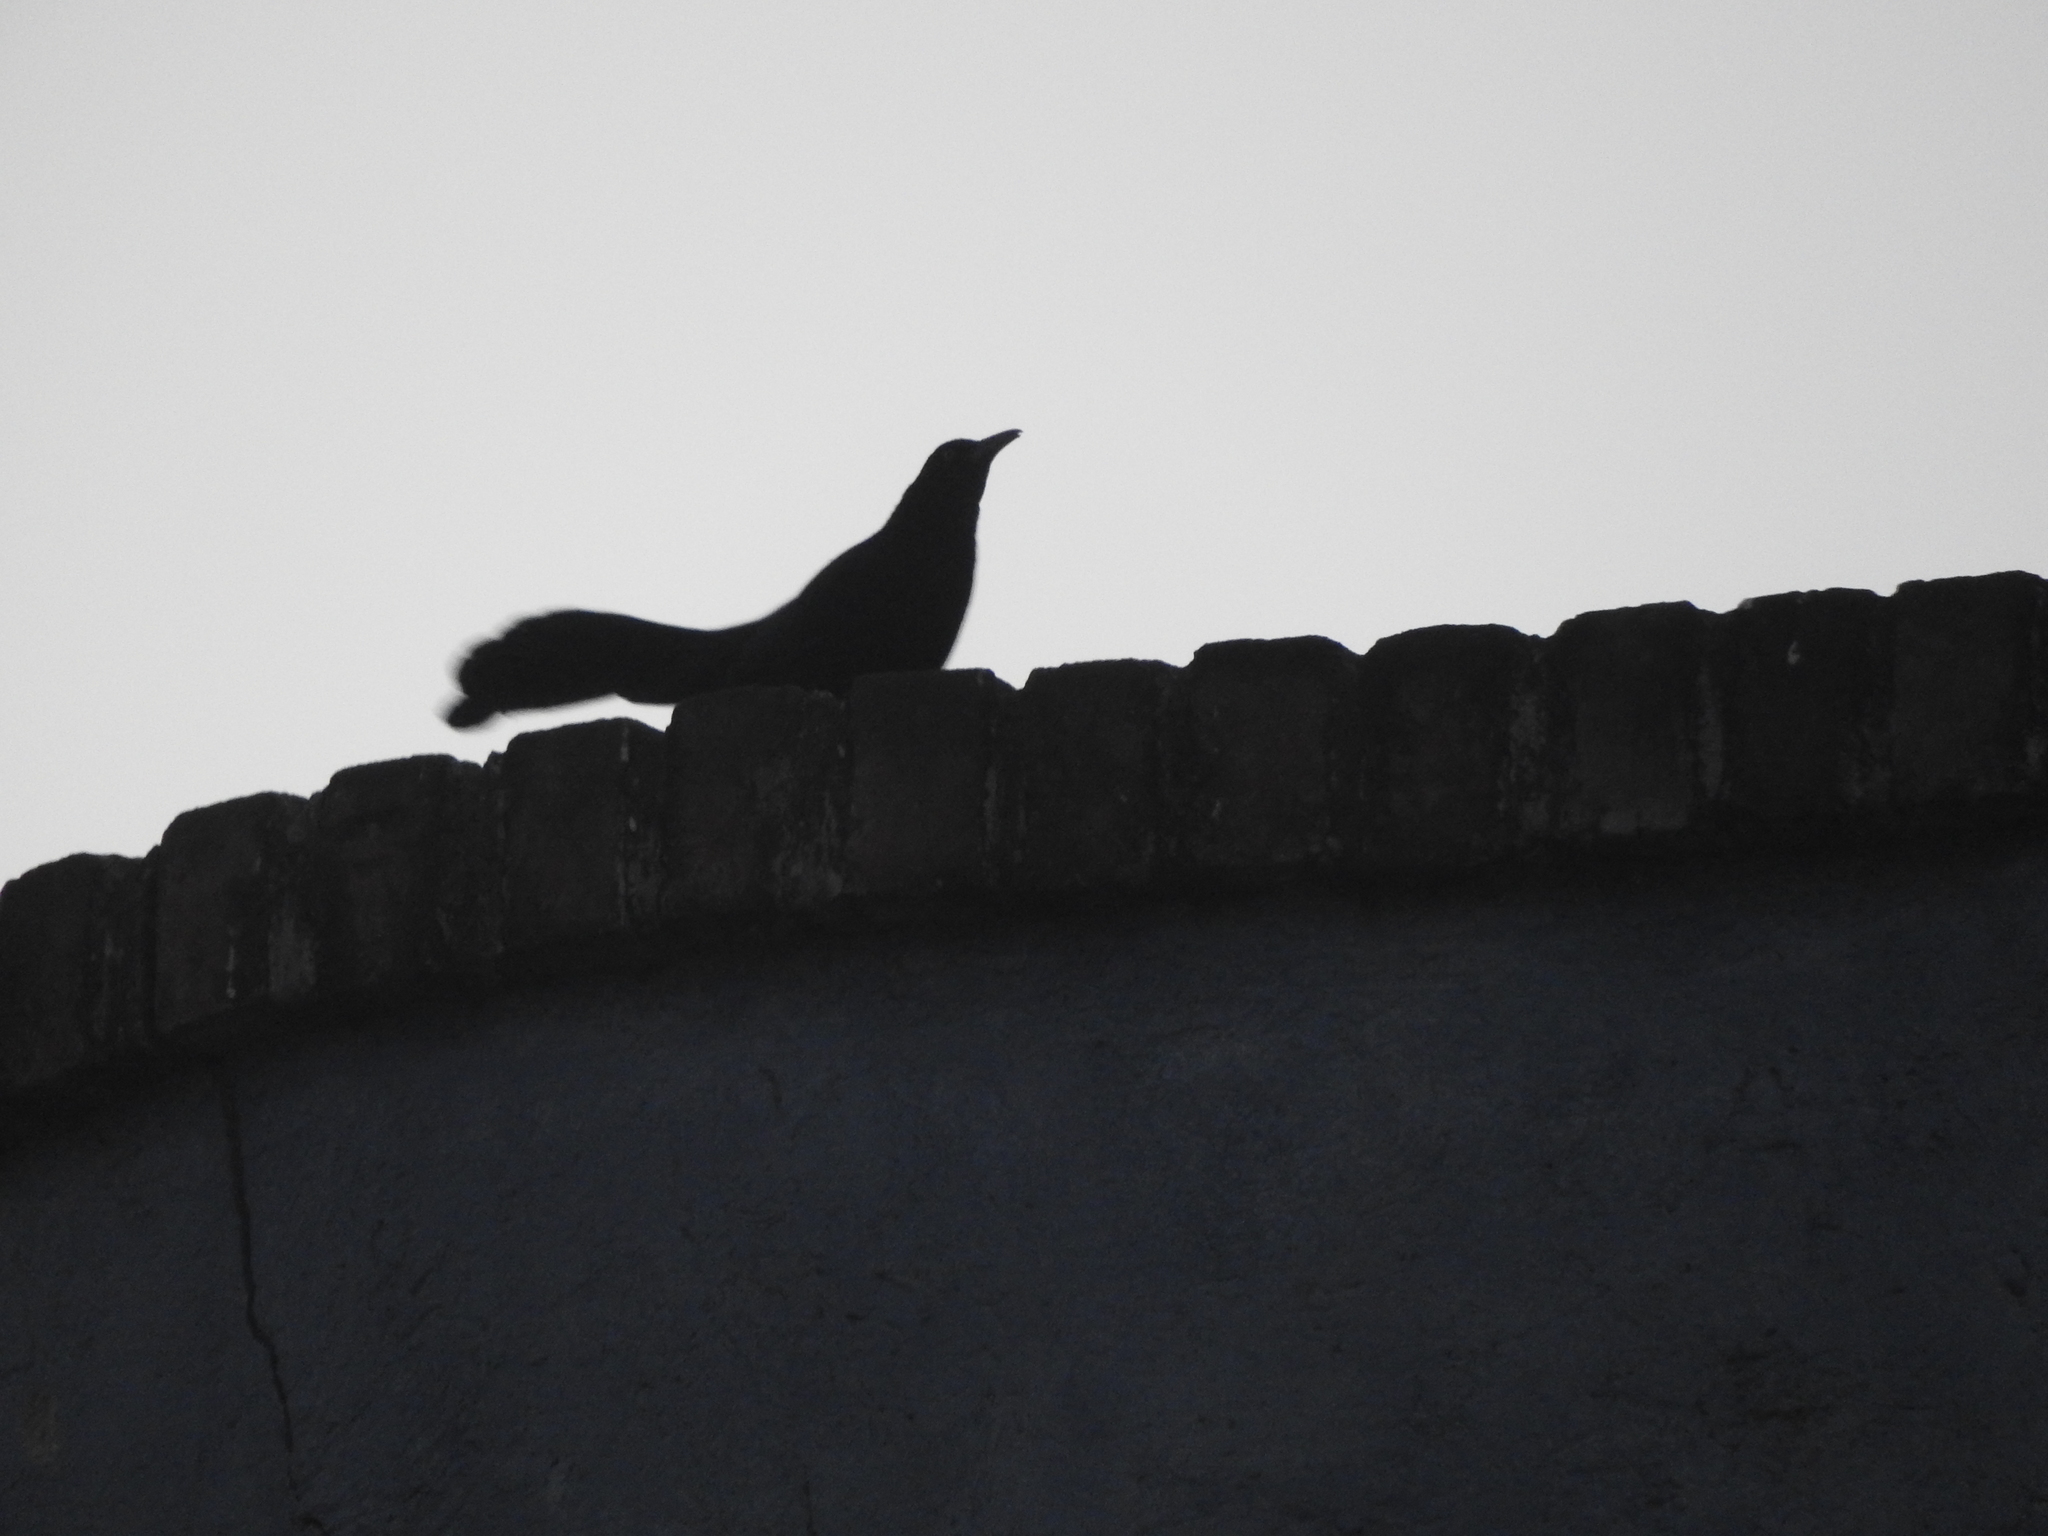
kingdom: Animalia
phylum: Chordata
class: Aves
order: Passeriformes
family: Icteridae
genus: Quiscalus
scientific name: Quiscalus mexicanus
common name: Great-tailed grackle
